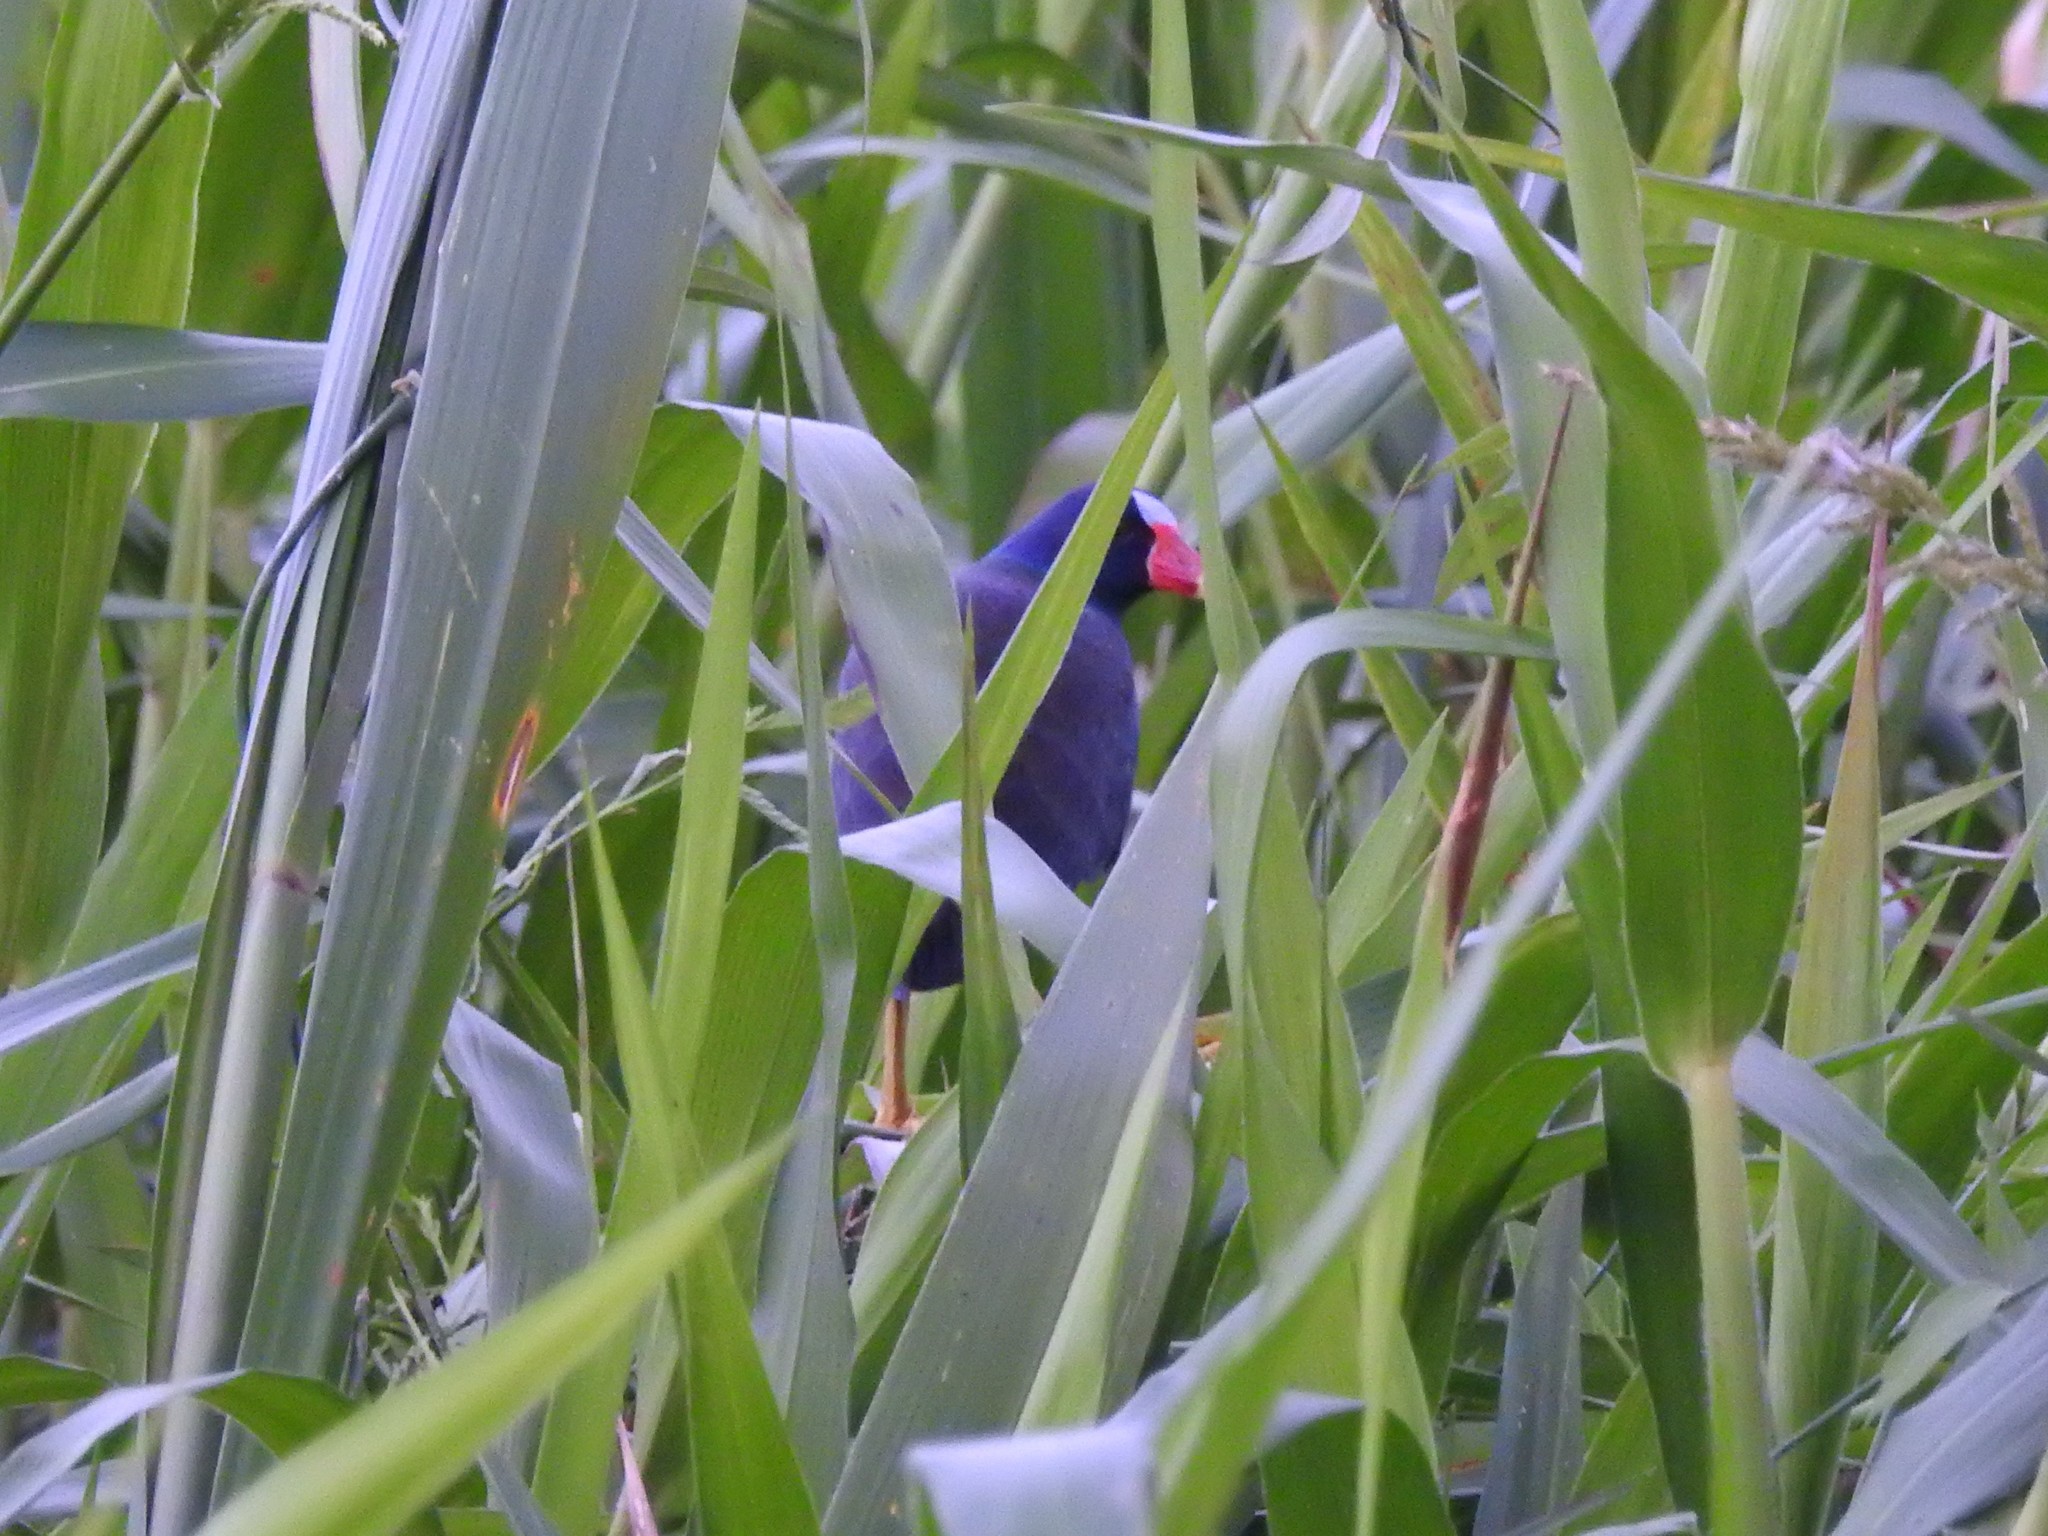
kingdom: Animalia
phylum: Chordata
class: Aves
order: Gruiformes
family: Rallidae
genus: Porphyrio
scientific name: Porphyrio martinica
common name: Purple gallinule
